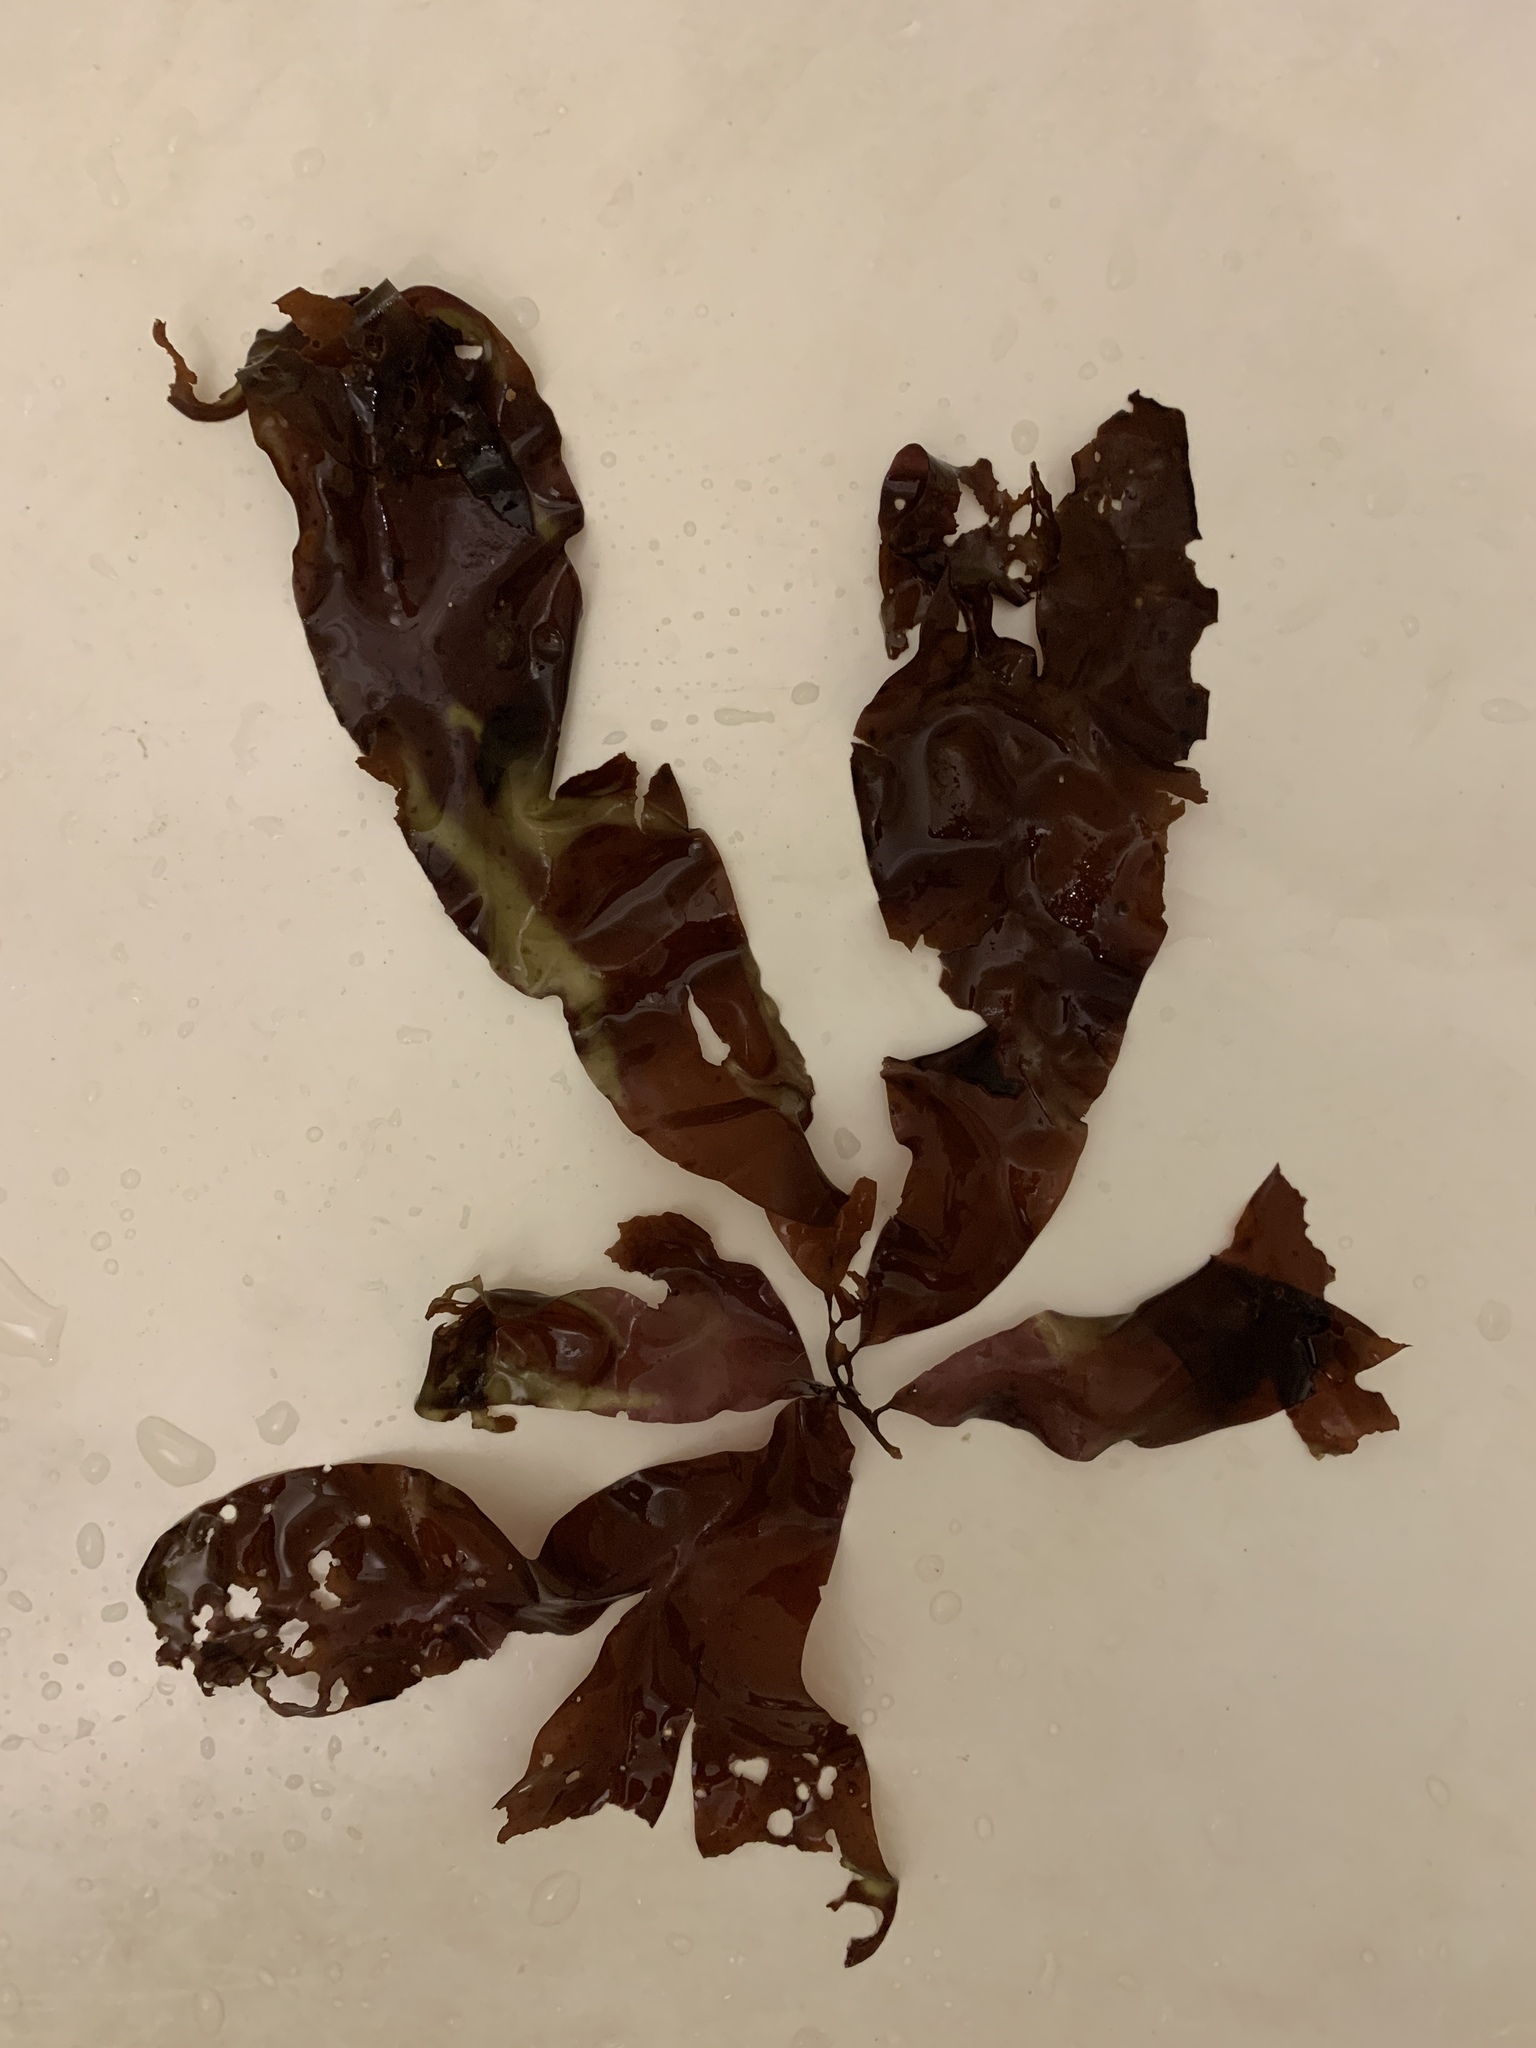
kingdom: Plantae
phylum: Rhodophyta
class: Florideophyceae
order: Palmariales
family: Palmariaceae
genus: Palmaria
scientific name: Palmaria palmata
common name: Dulse
